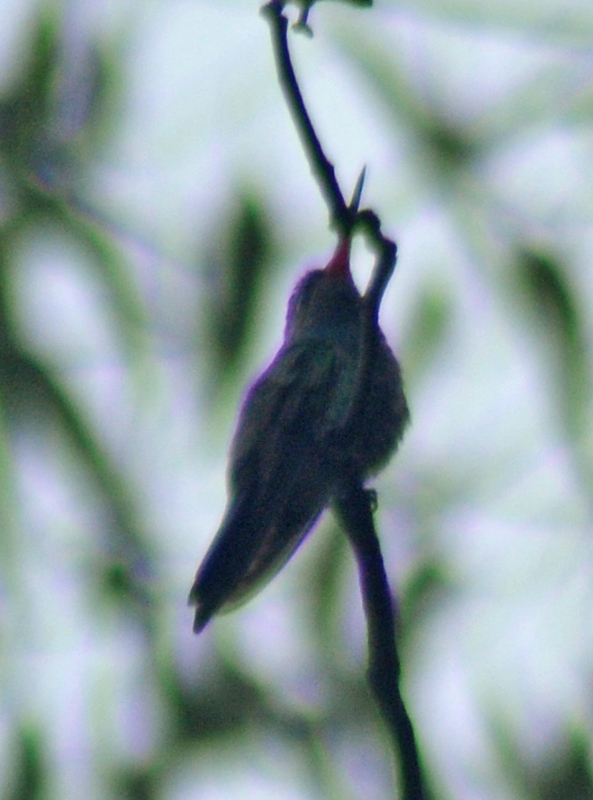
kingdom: Animalia
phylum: Chordata
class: Aves
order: Apodiformes
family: Trochilidae
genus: Cynanthus
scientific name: Cynanthus latirostris
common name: Broad-billed hummingbird
